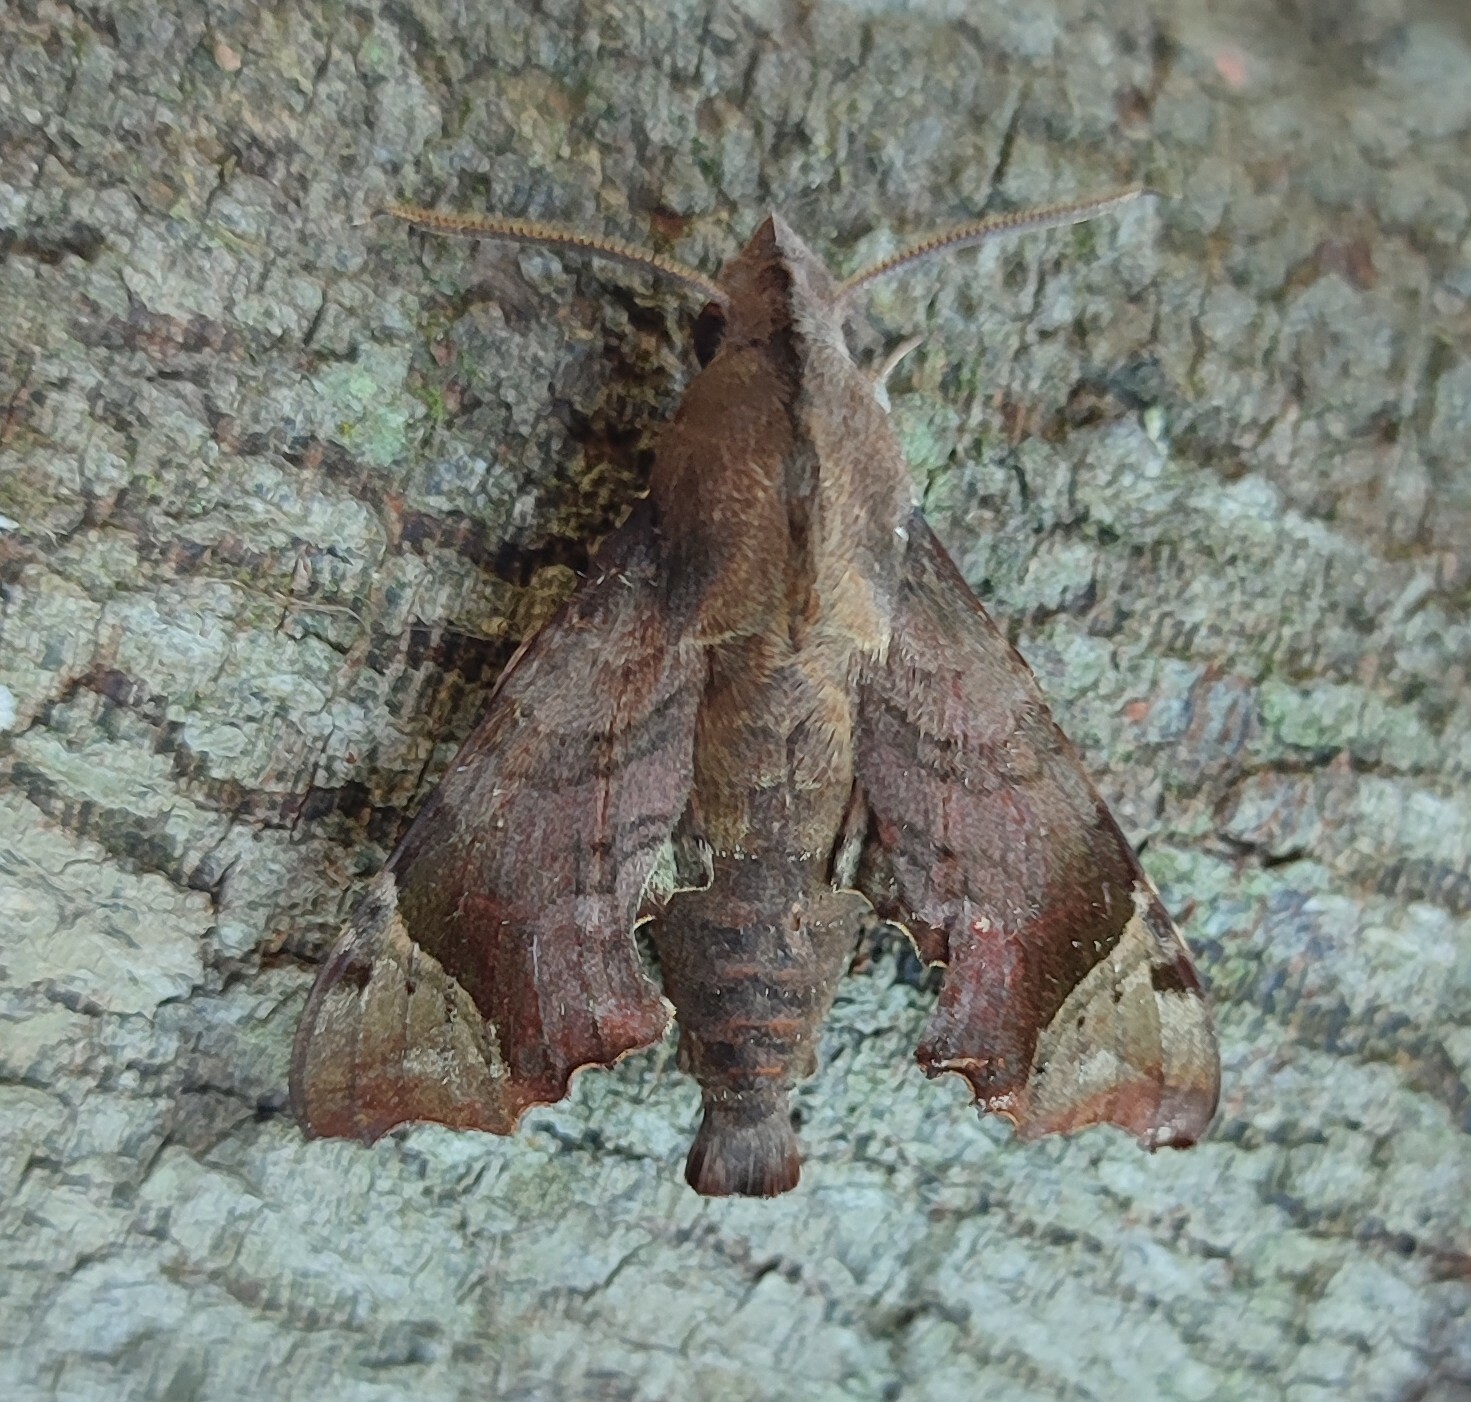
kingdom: Animalia
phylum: Arthropoda
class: Insecta
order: Lepidoptera
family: Sphingidae
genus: Temnora
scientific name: Temnora zantus
